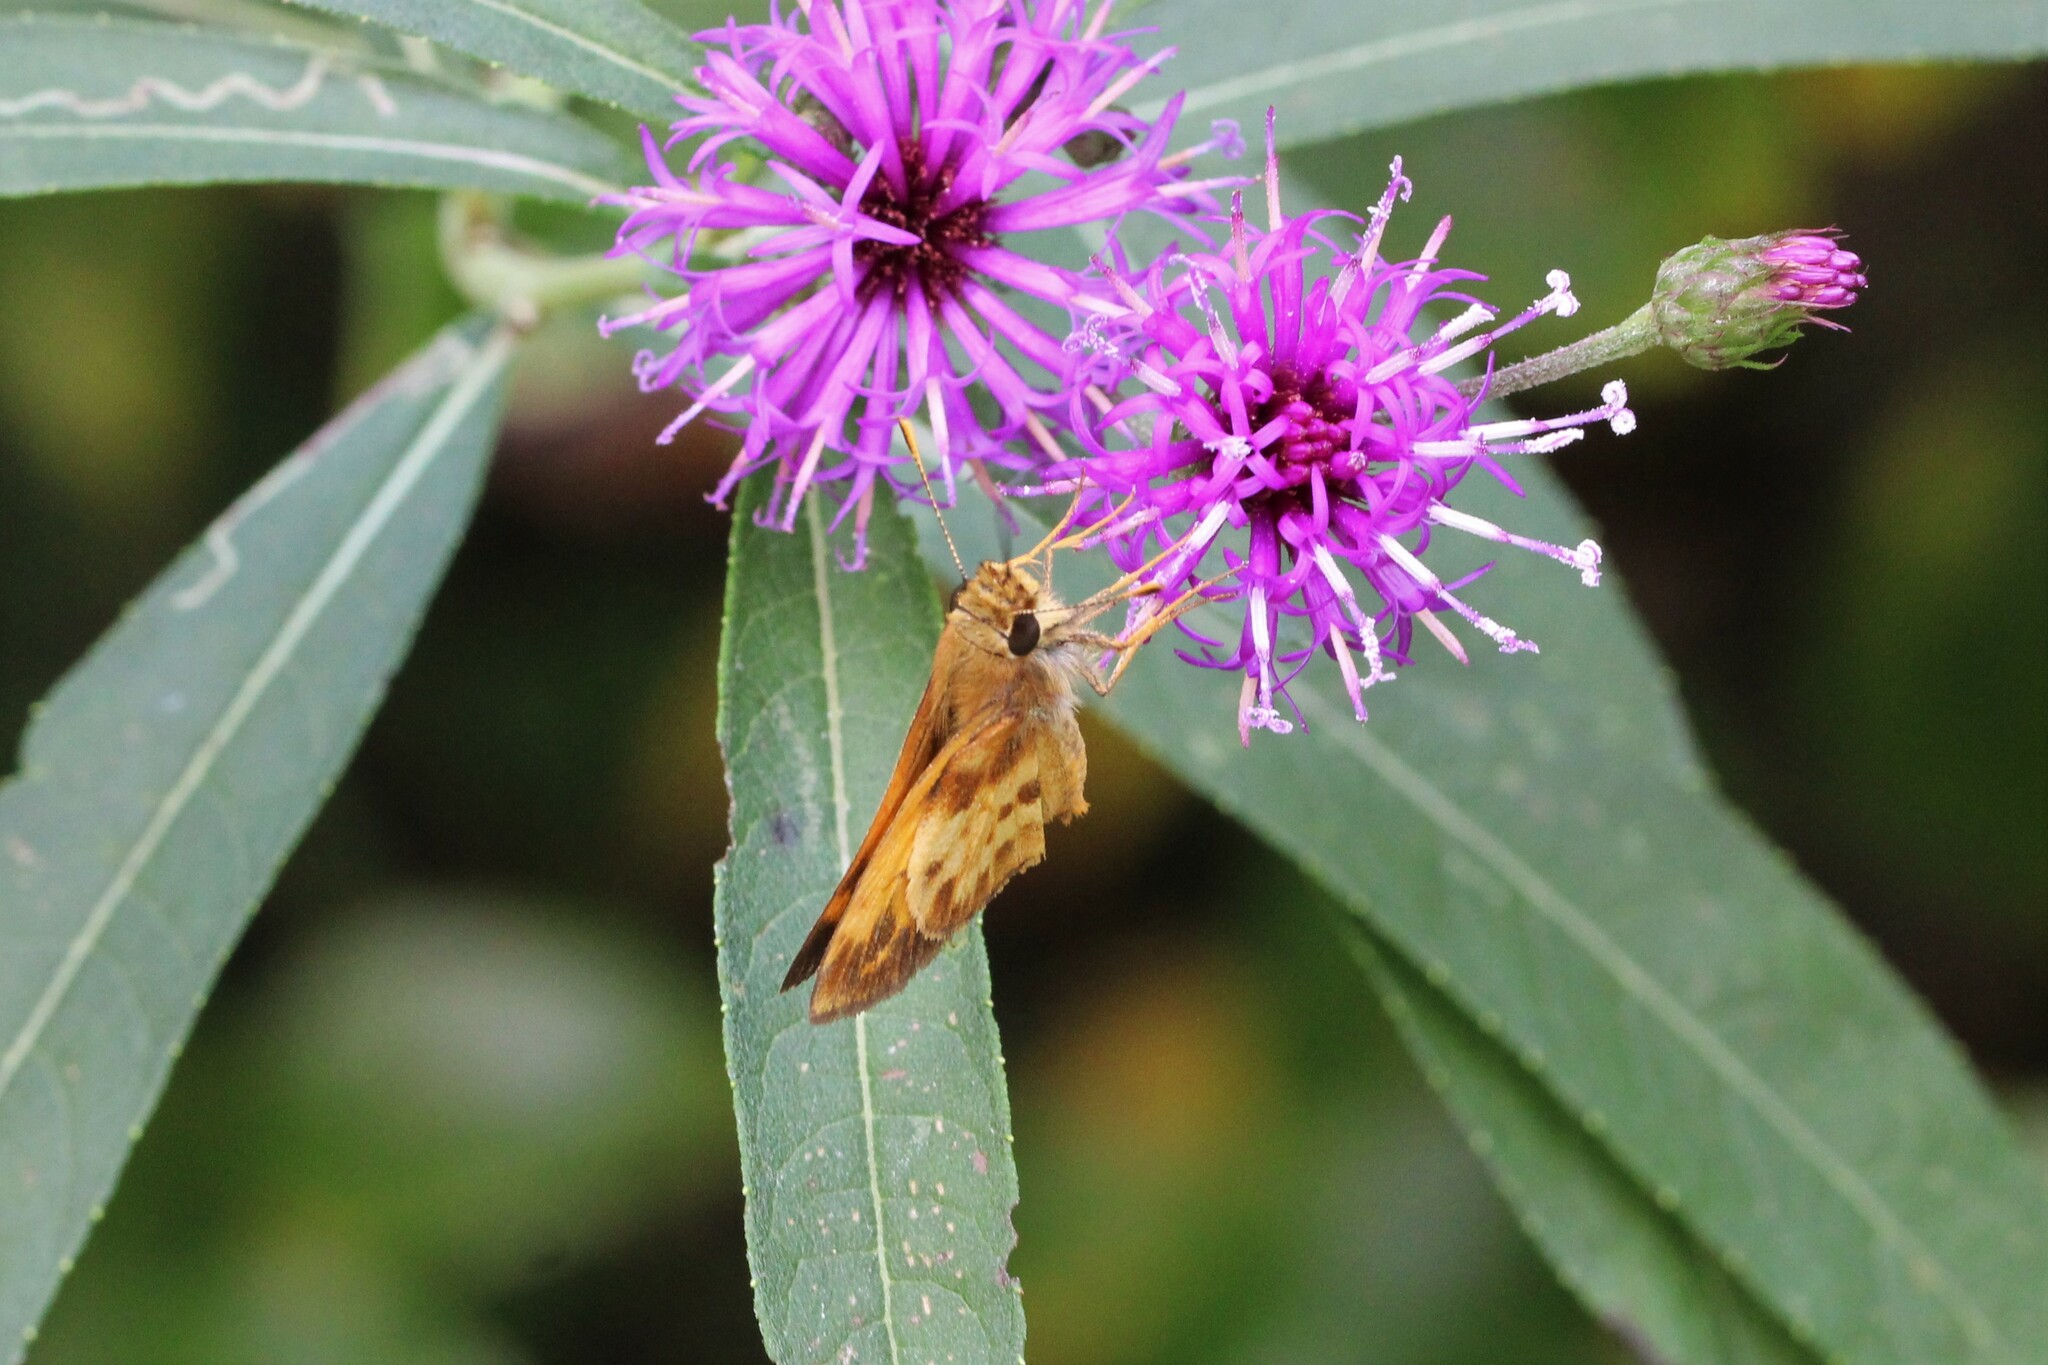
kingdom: Animalia
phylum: Arthropoda
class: Insecta
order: Lepidoptera
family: Hesperiidae
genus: Lon
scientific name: Lon zabulon
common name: Zabulon skipper
